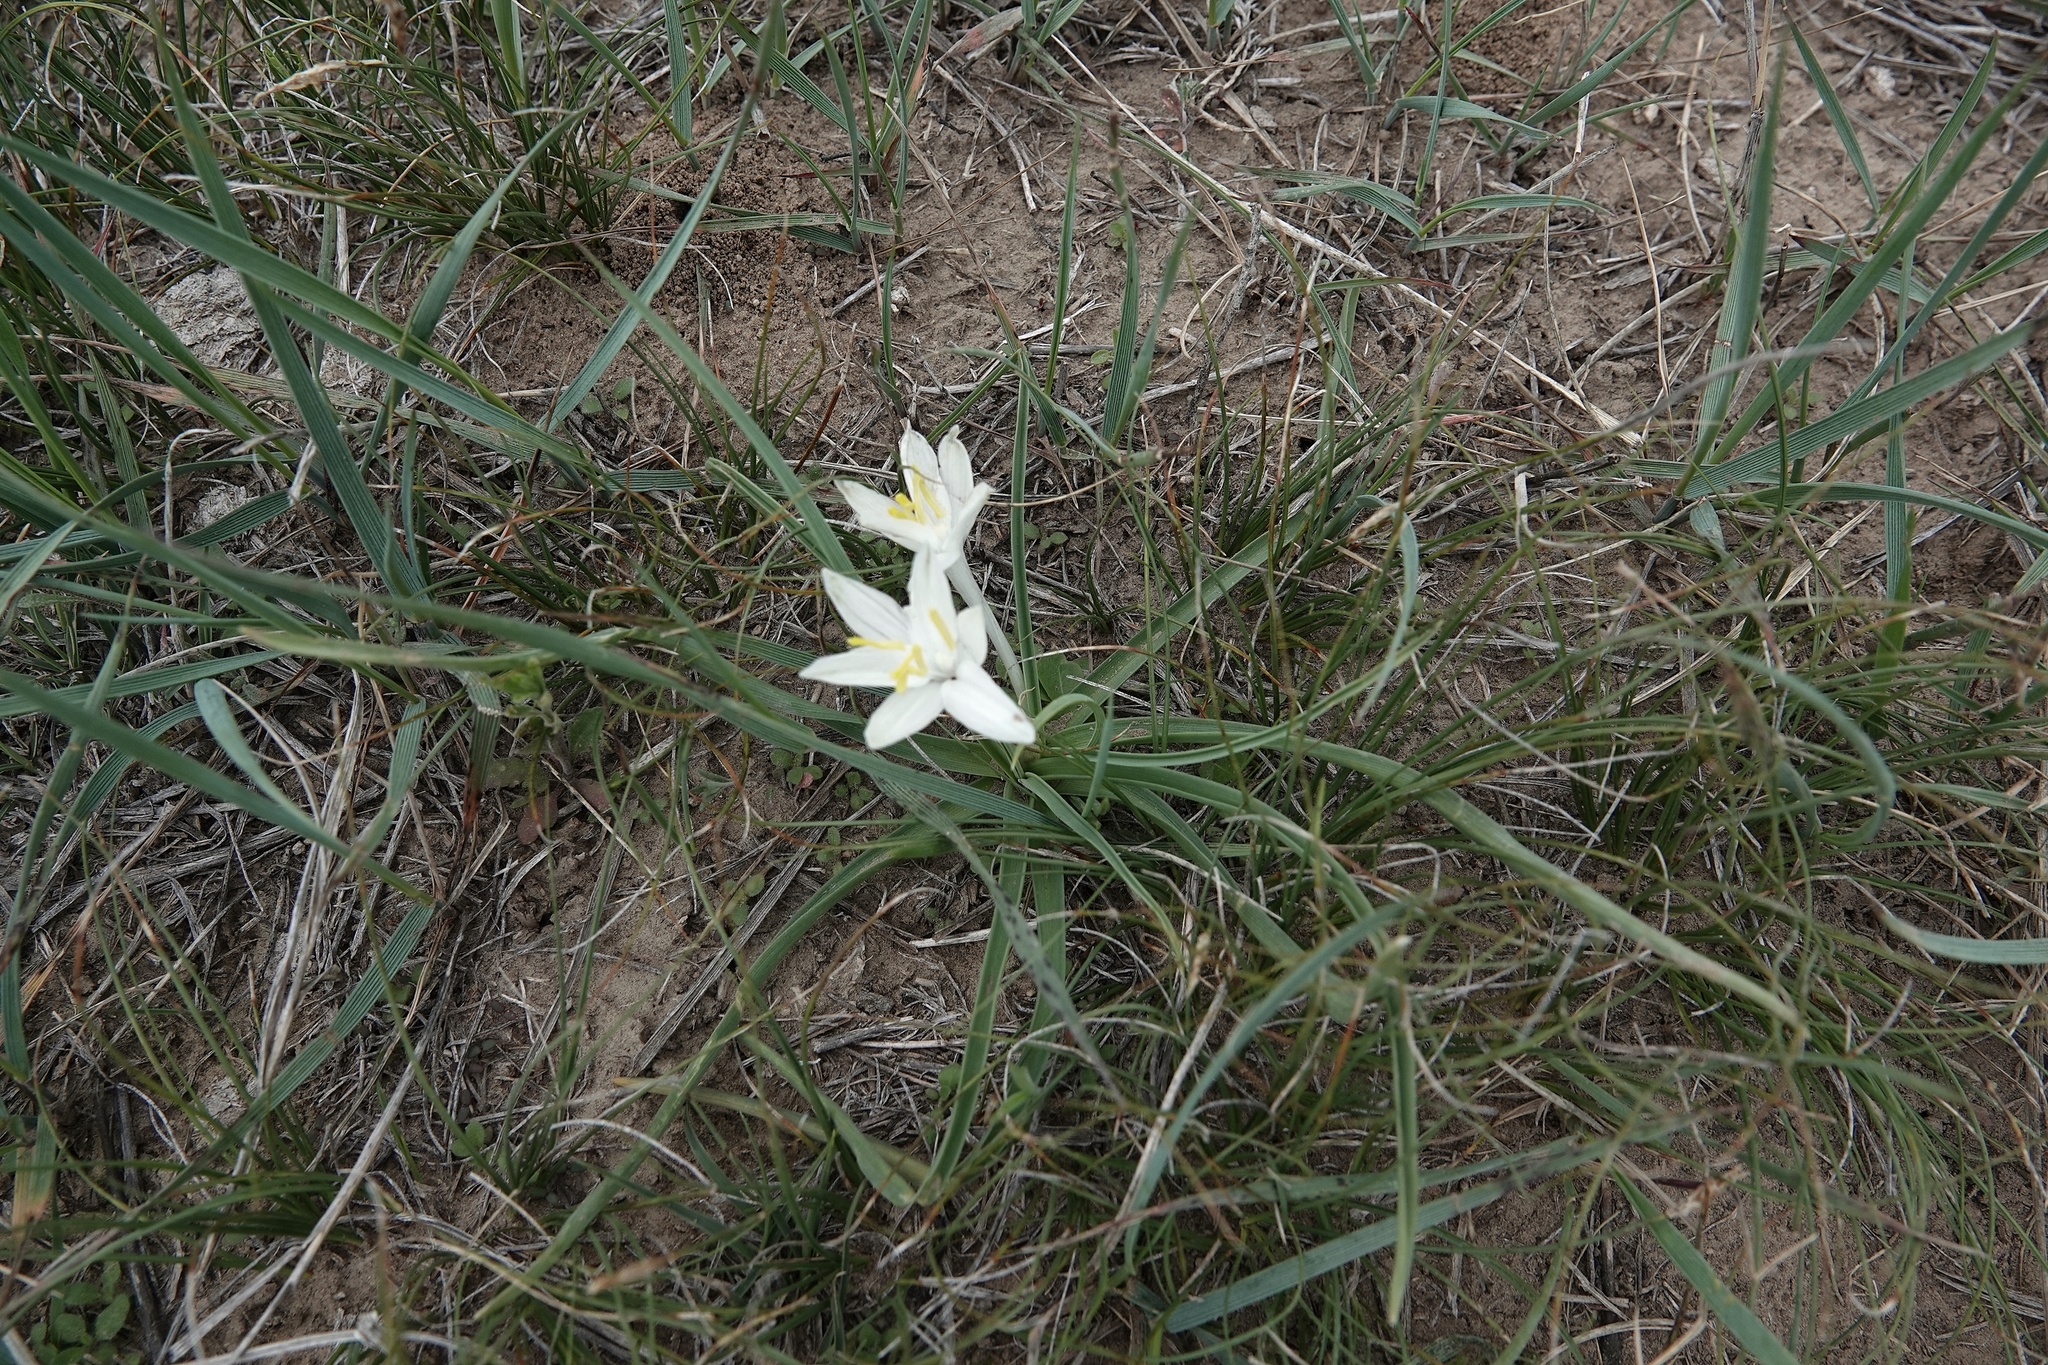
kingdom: Plantae
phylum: Tracheophyta
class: Liliopsida
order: Asparagales
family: Asparagaceae
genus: Leucocrinum
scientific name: Leucocrinum montanum
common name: Mountain-lily
